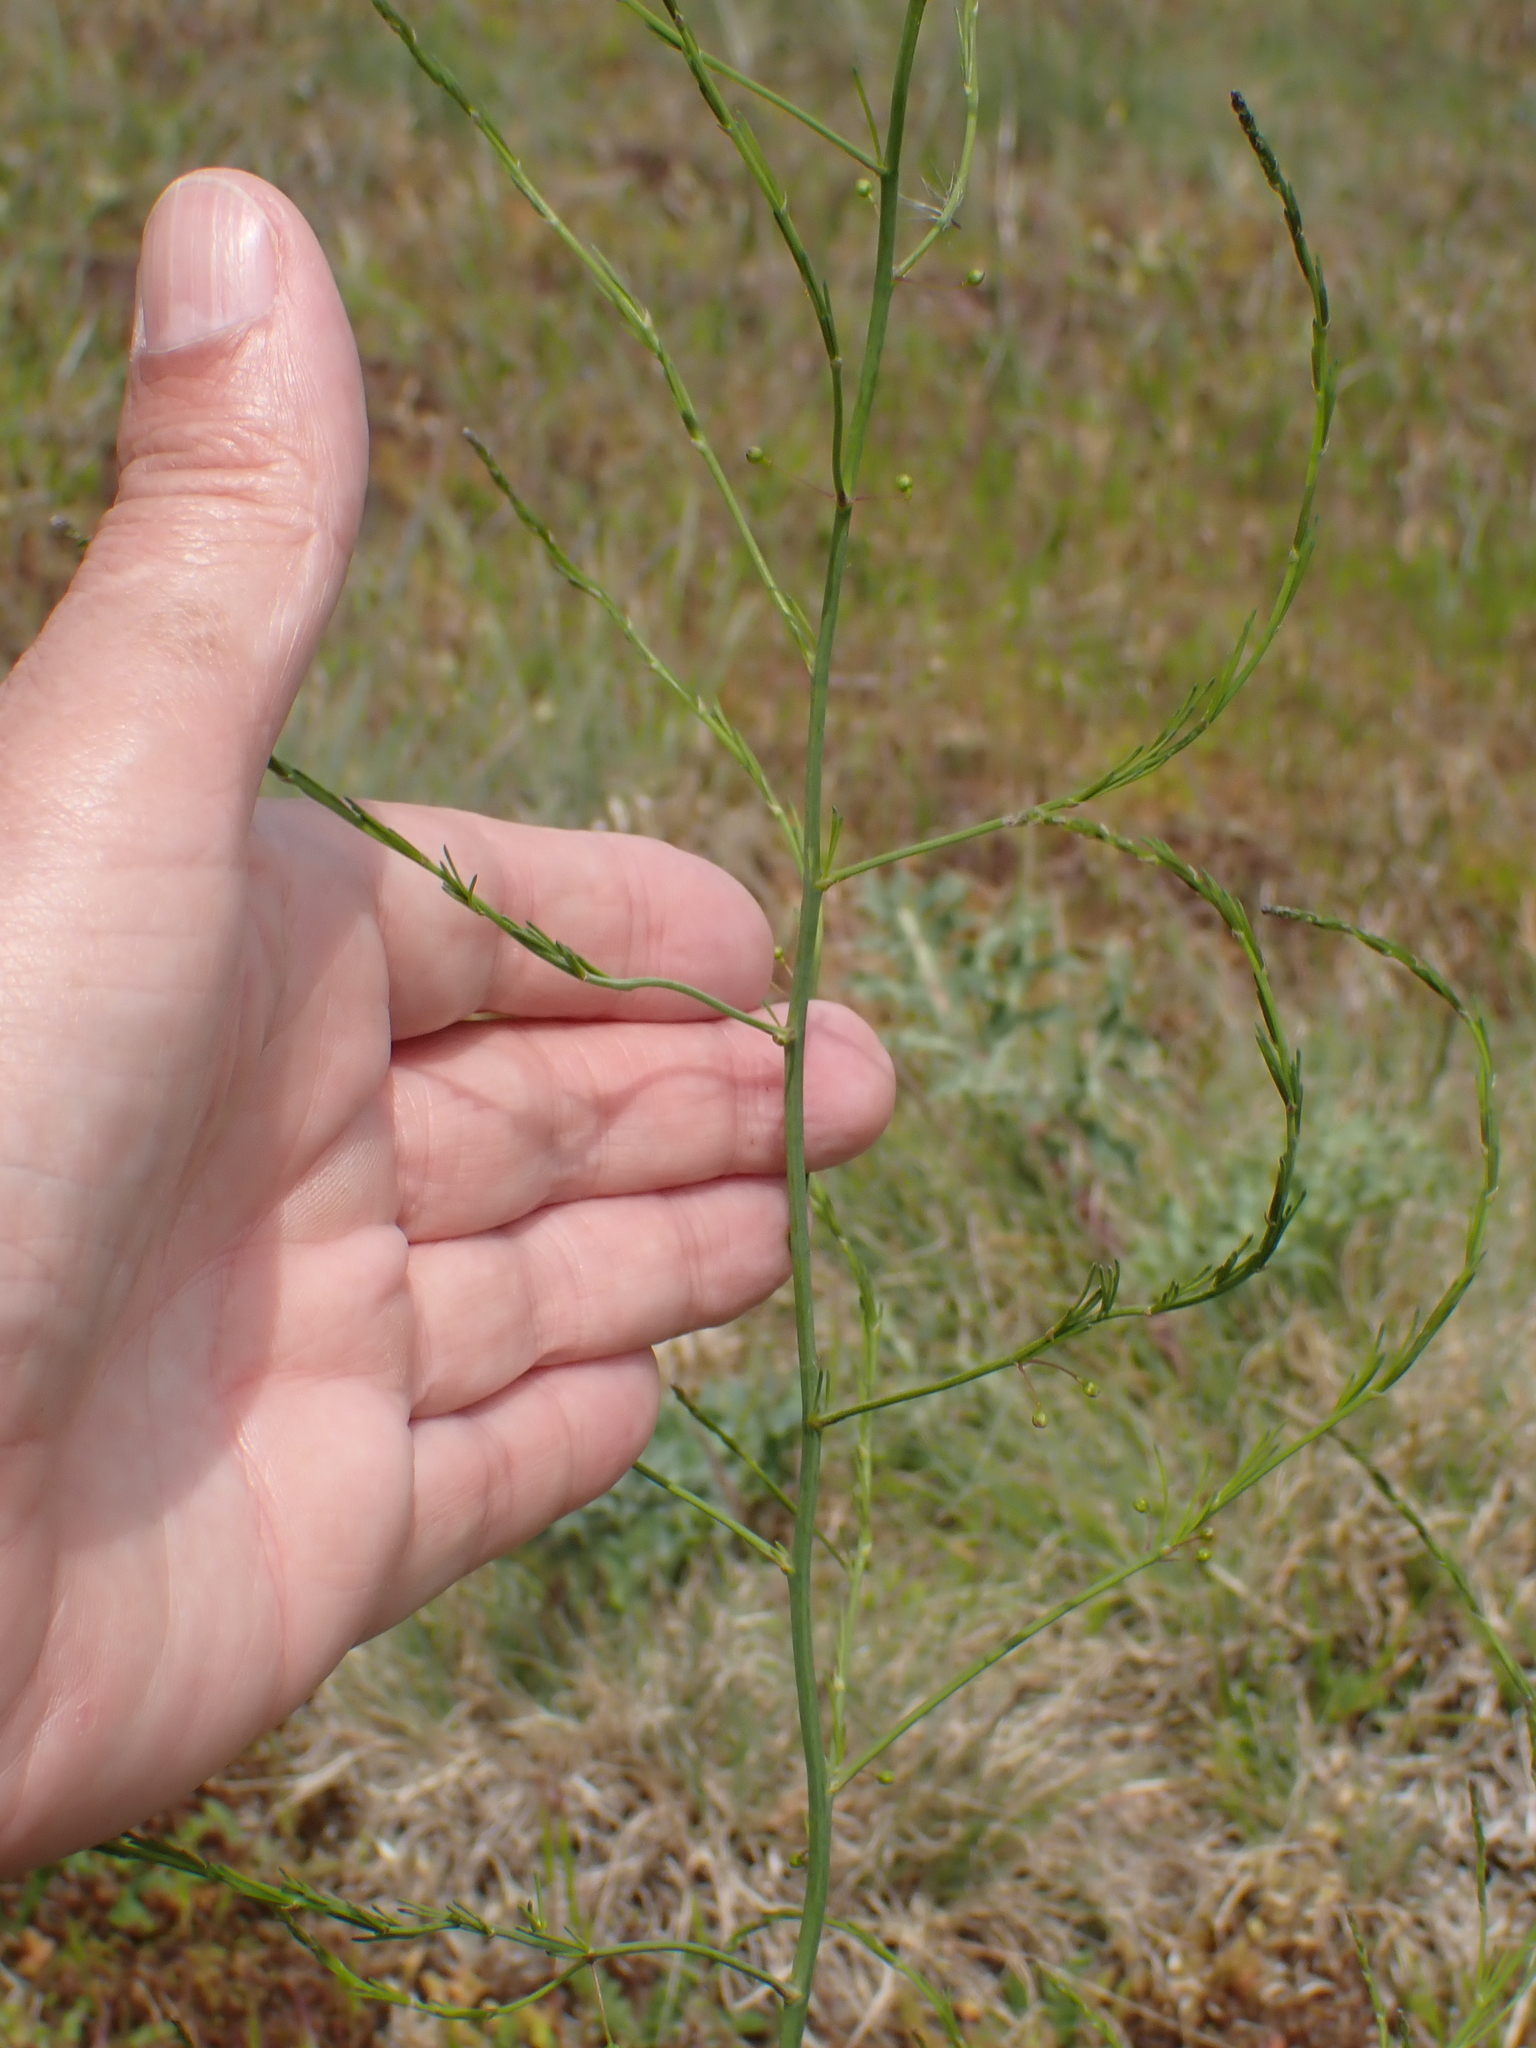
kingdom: Plantae
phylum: Tracheophyta
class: Liliopsida
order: Asparagales
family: Asparagaceae
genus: Asparagus
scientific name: Asparagus officinalis
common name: Garden asparagus
